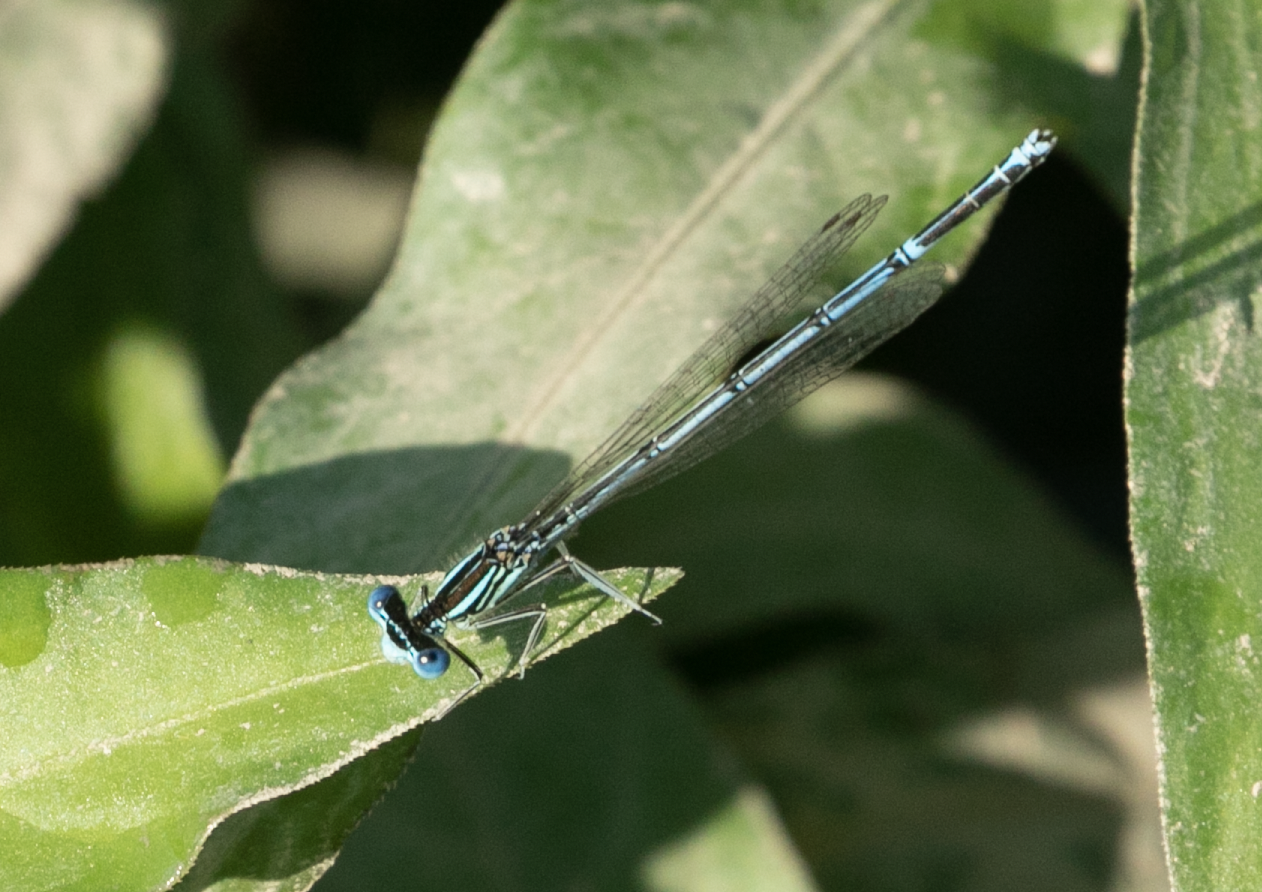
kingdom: Animalia
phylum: Arthropoda
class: Insecta
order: Odonata
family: Platycnemididae
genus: Platycnemis
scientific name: Platycnemis pennipes
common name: White-legged damselfly
